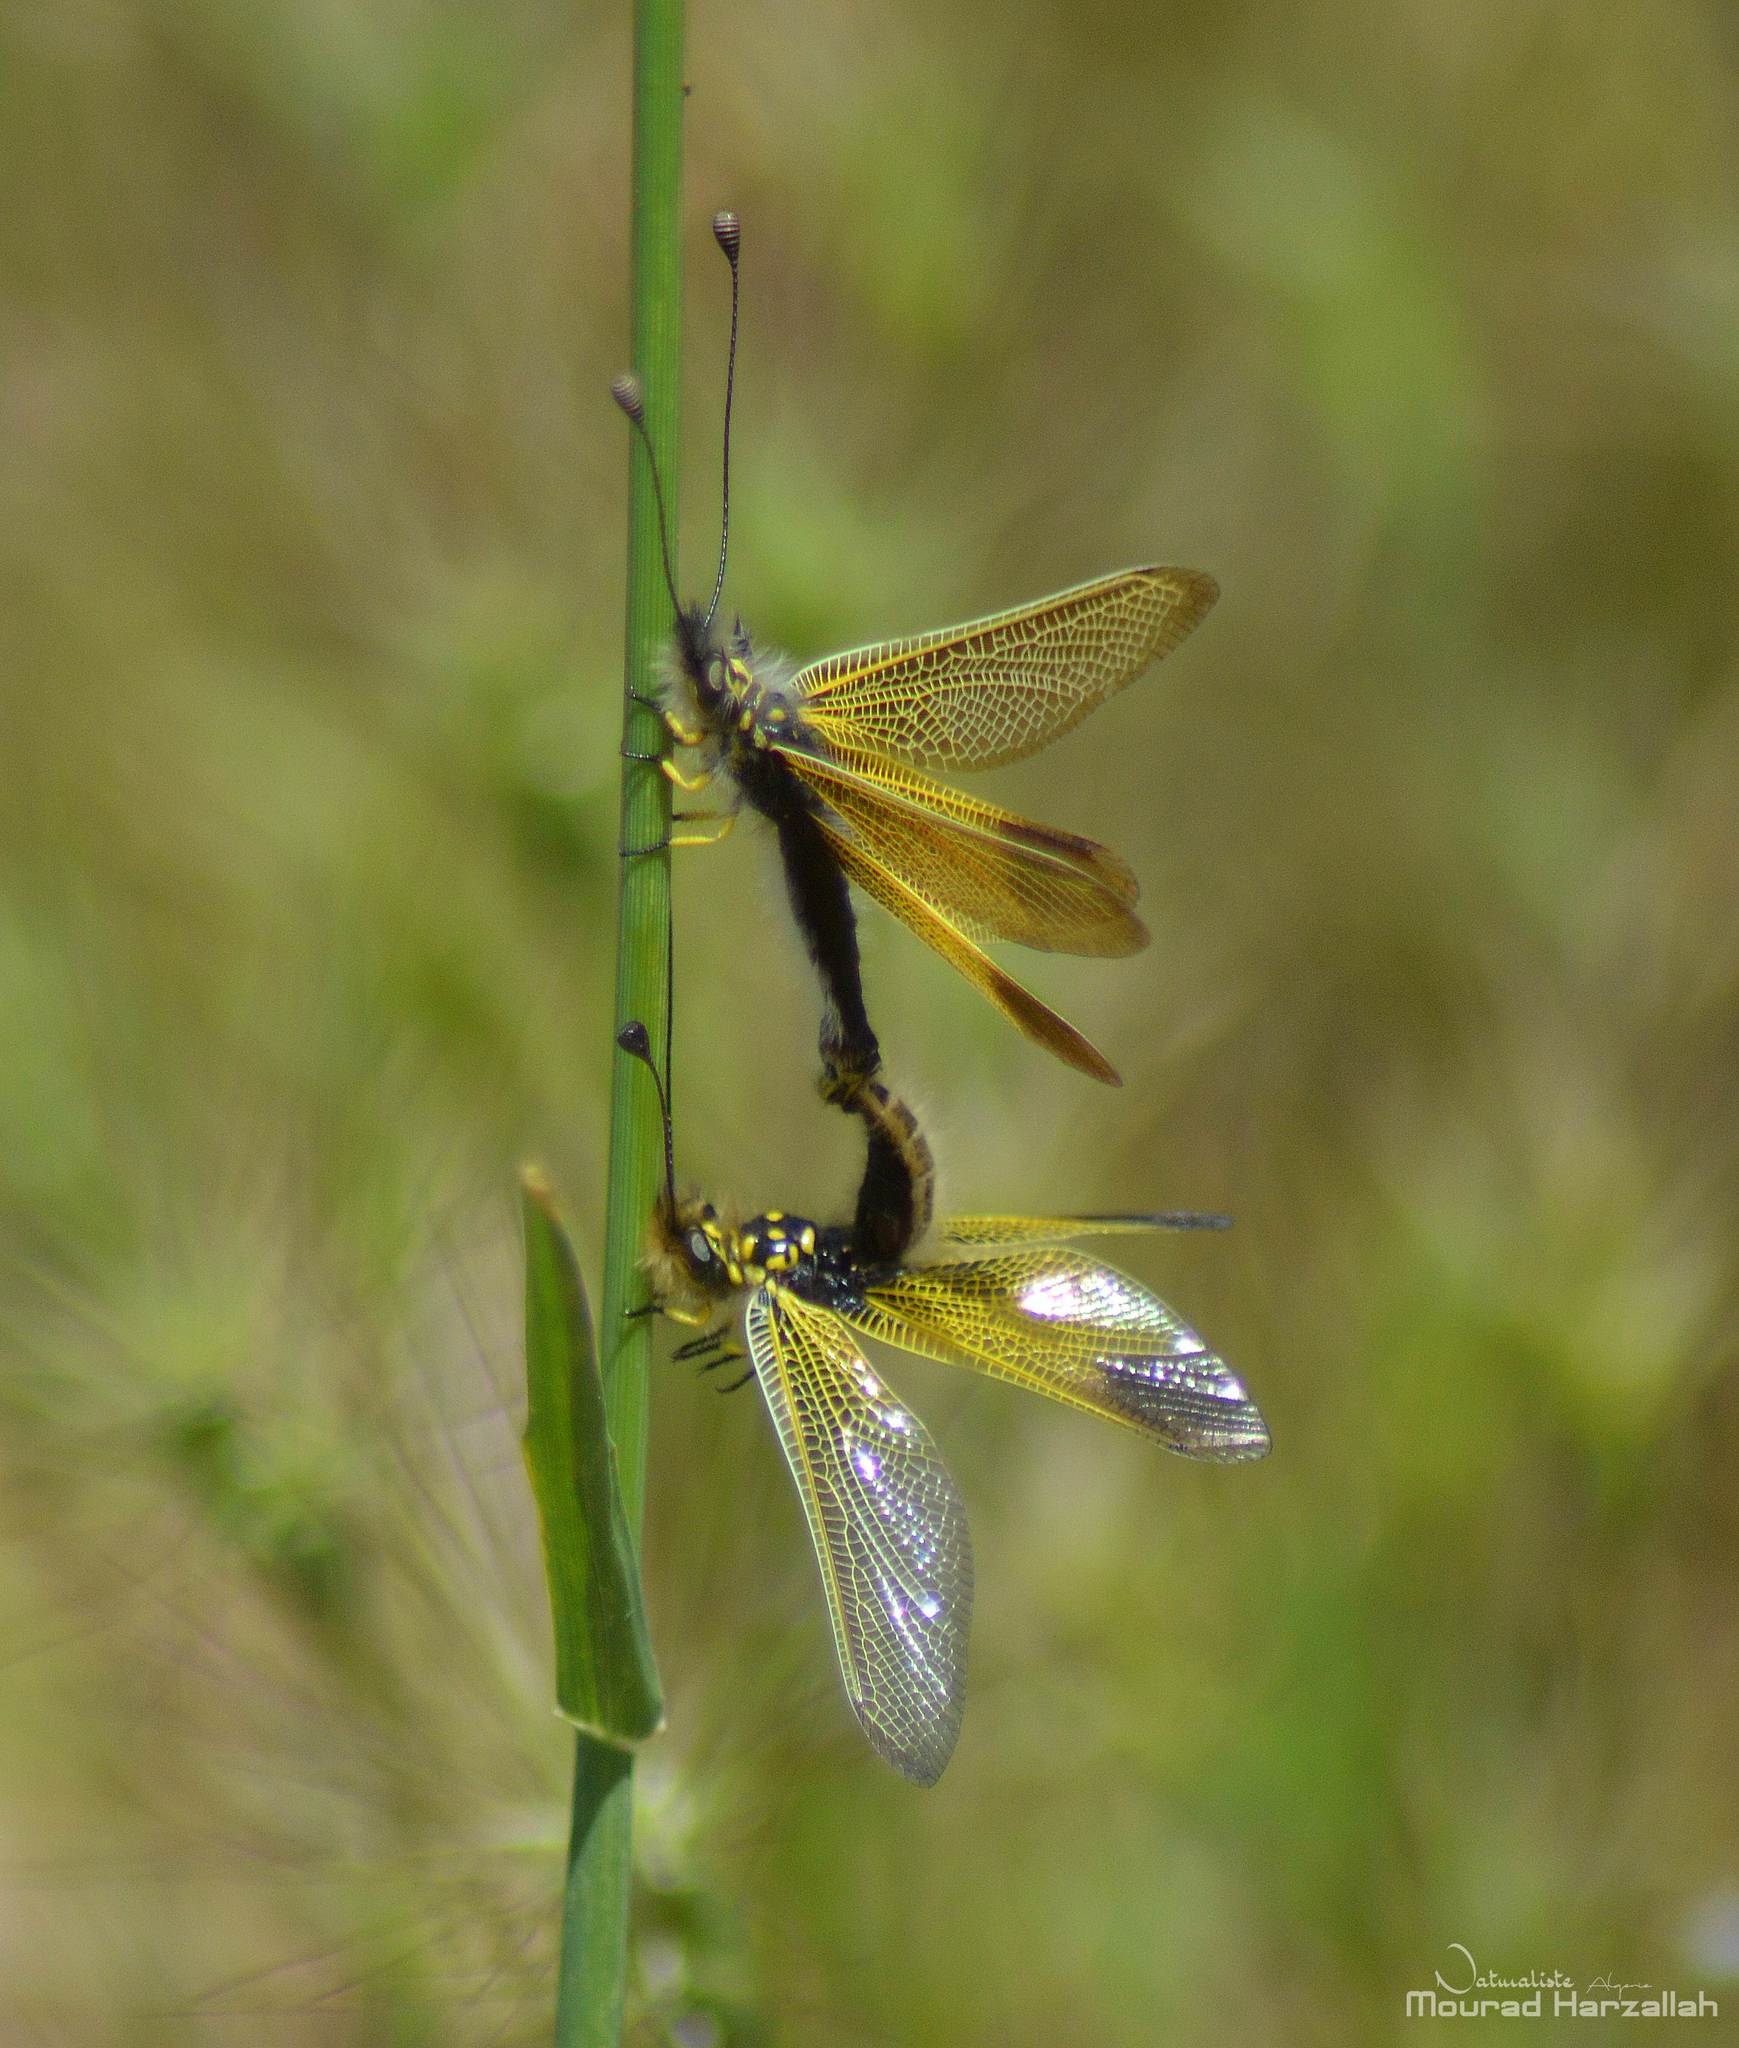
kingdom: Animalia
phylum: Arthropoda
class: Insecta
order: Neuroptera
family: Ascalaphidae
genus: Libelloides
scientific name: Libelloides ictericus
